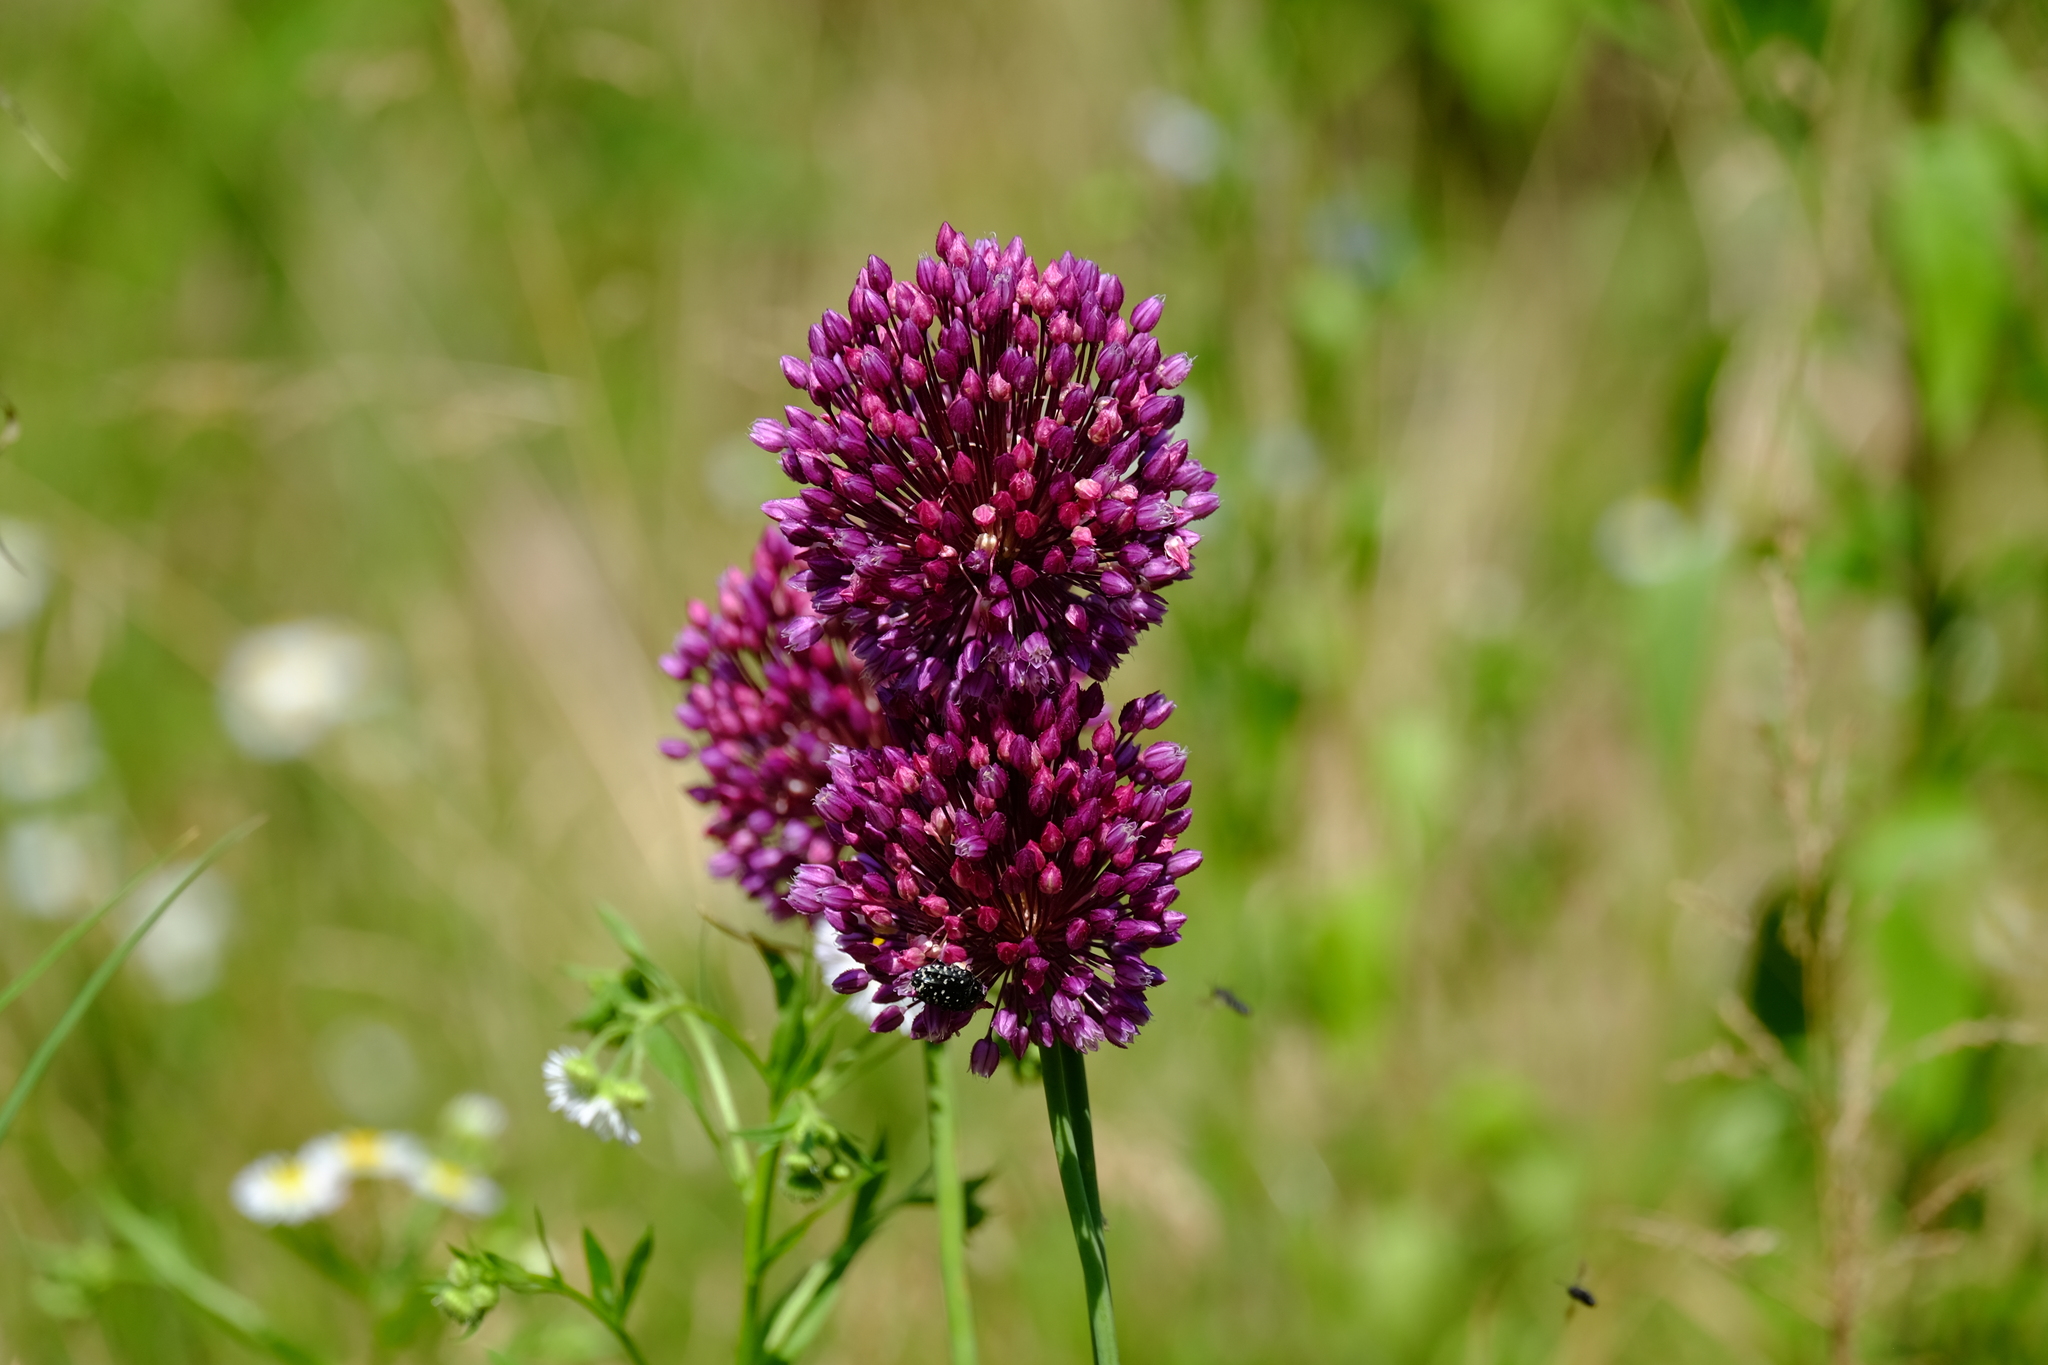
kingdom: Plantae
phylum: Tracheophyta
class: Liliopsida
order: Asparagales
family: Amaryllidaceae
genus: Allium
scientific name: Allium rotundum
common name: Sand leek
